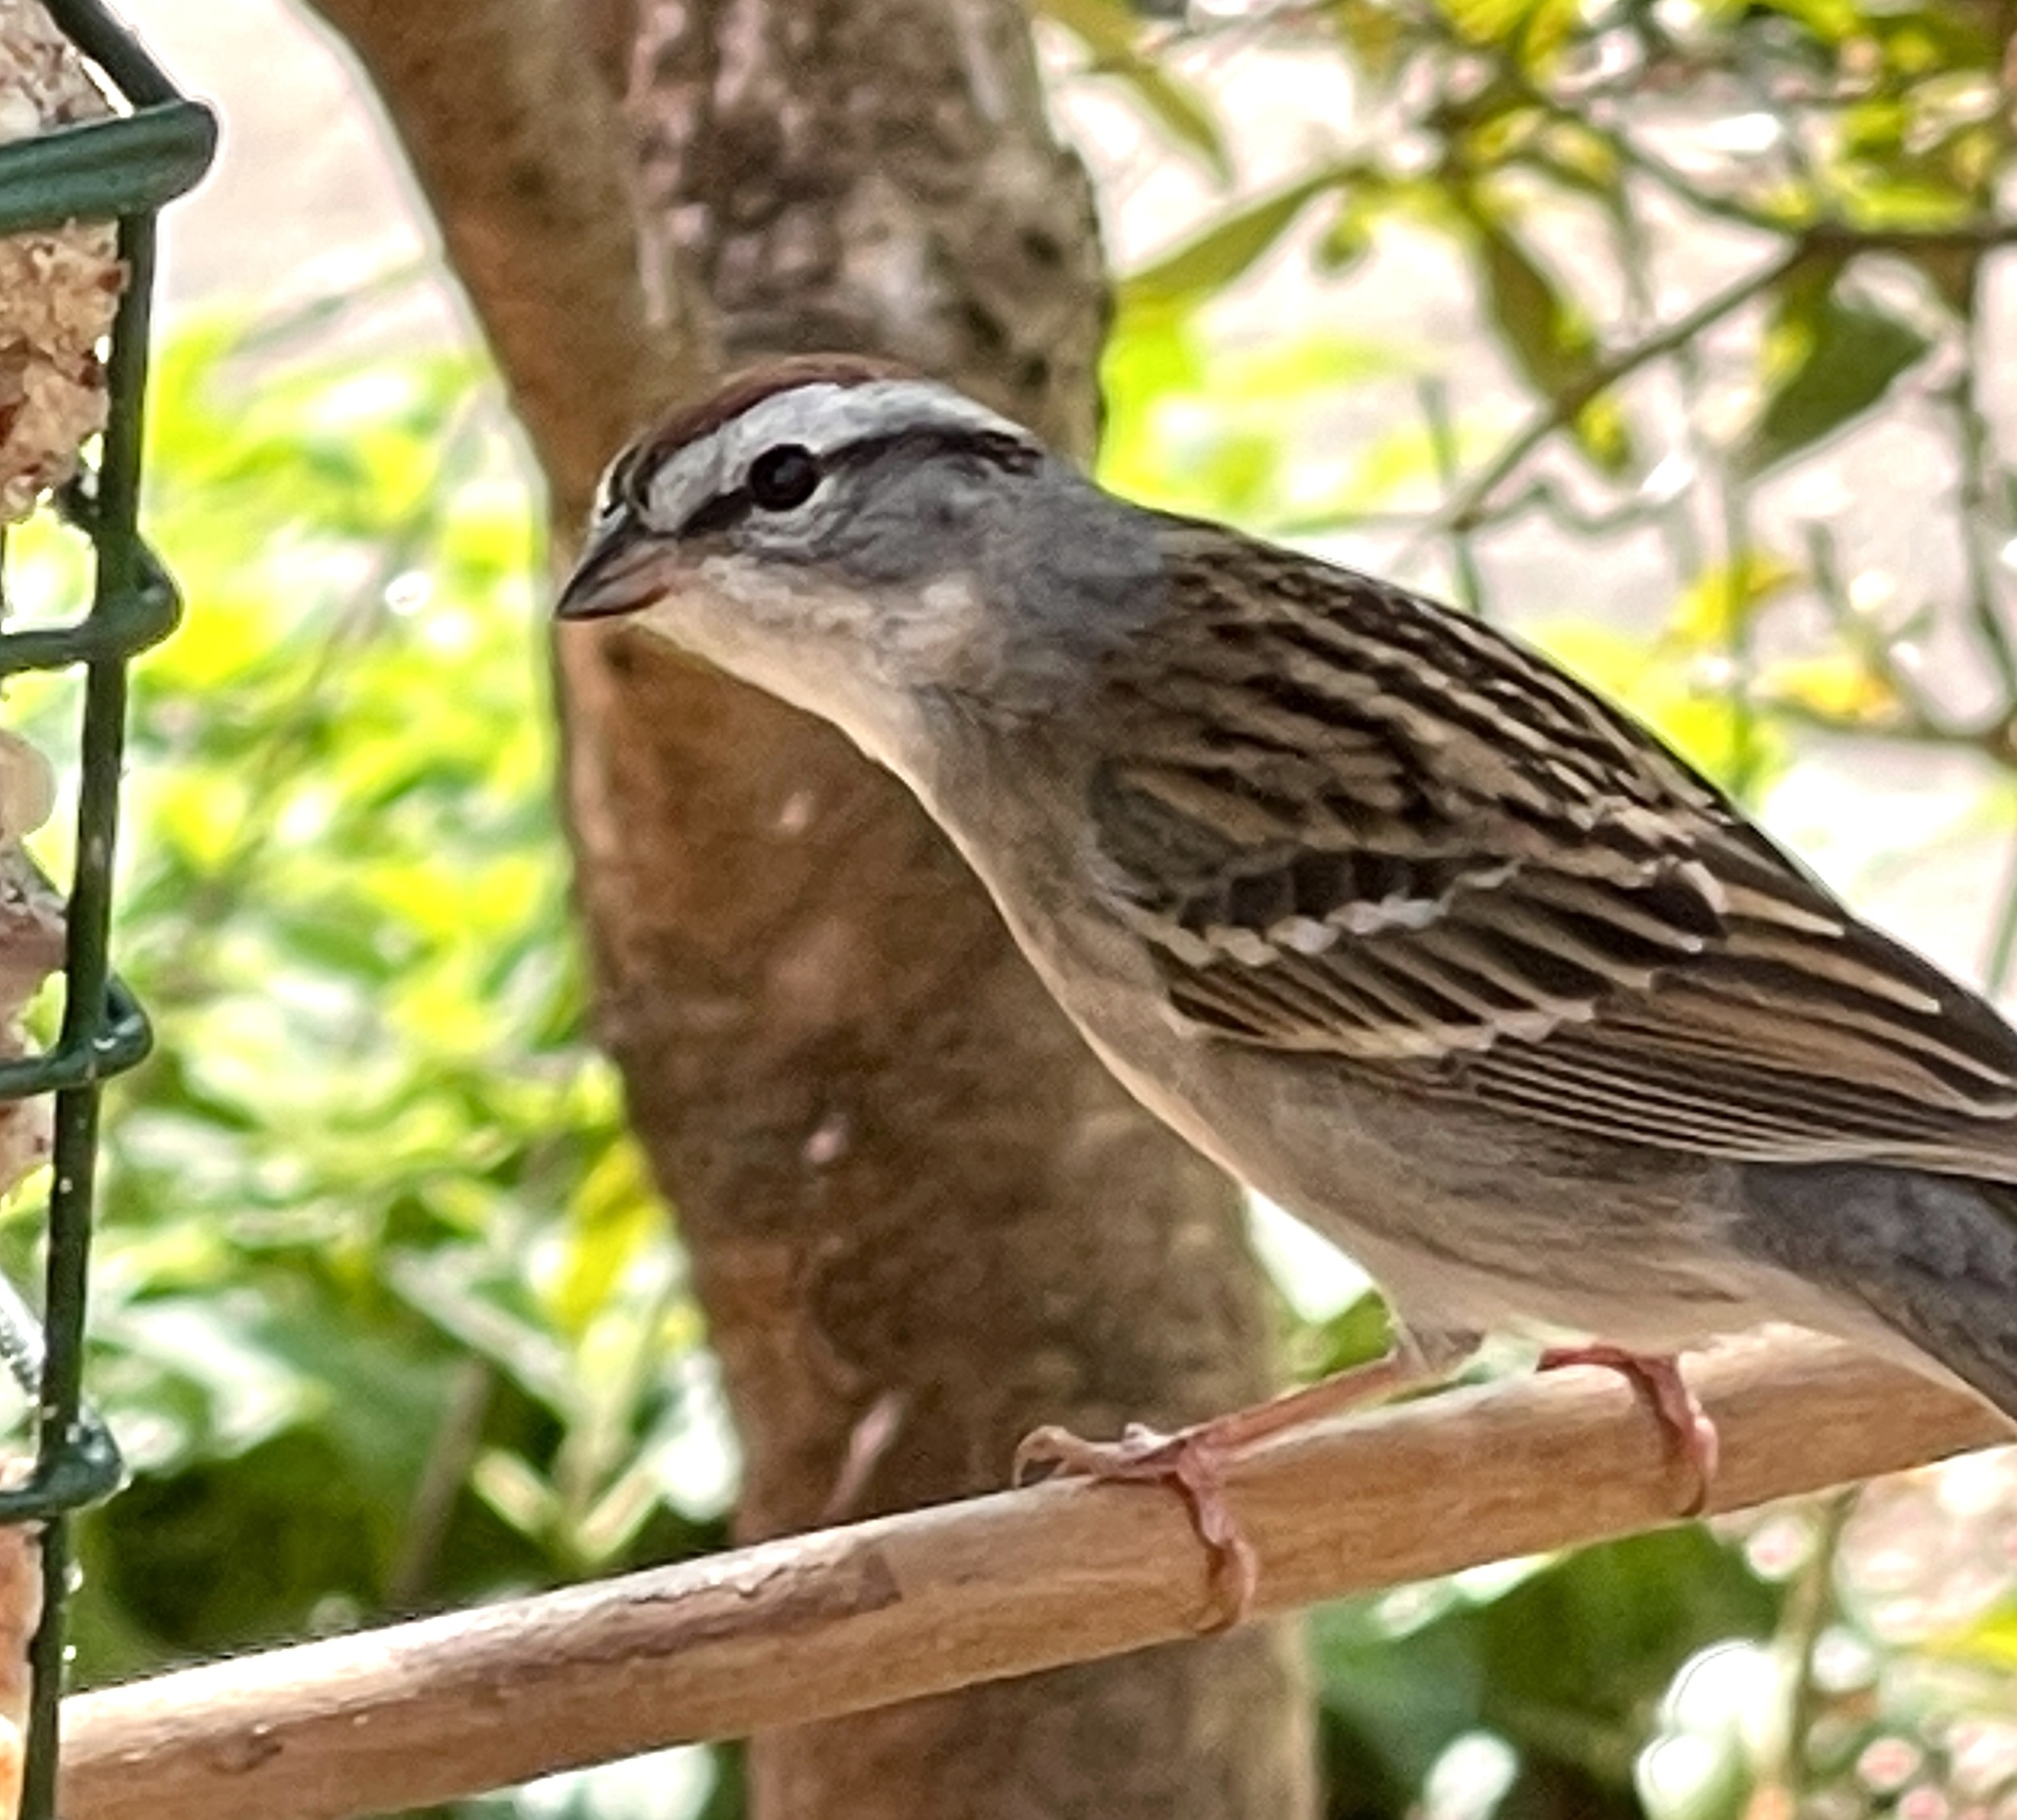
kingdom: Animalia
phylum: Chordata
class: Aves
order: Passeriformes
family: Passerellidae
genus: Spizella
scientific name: Spizella passerina
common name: Chipping sparrow
